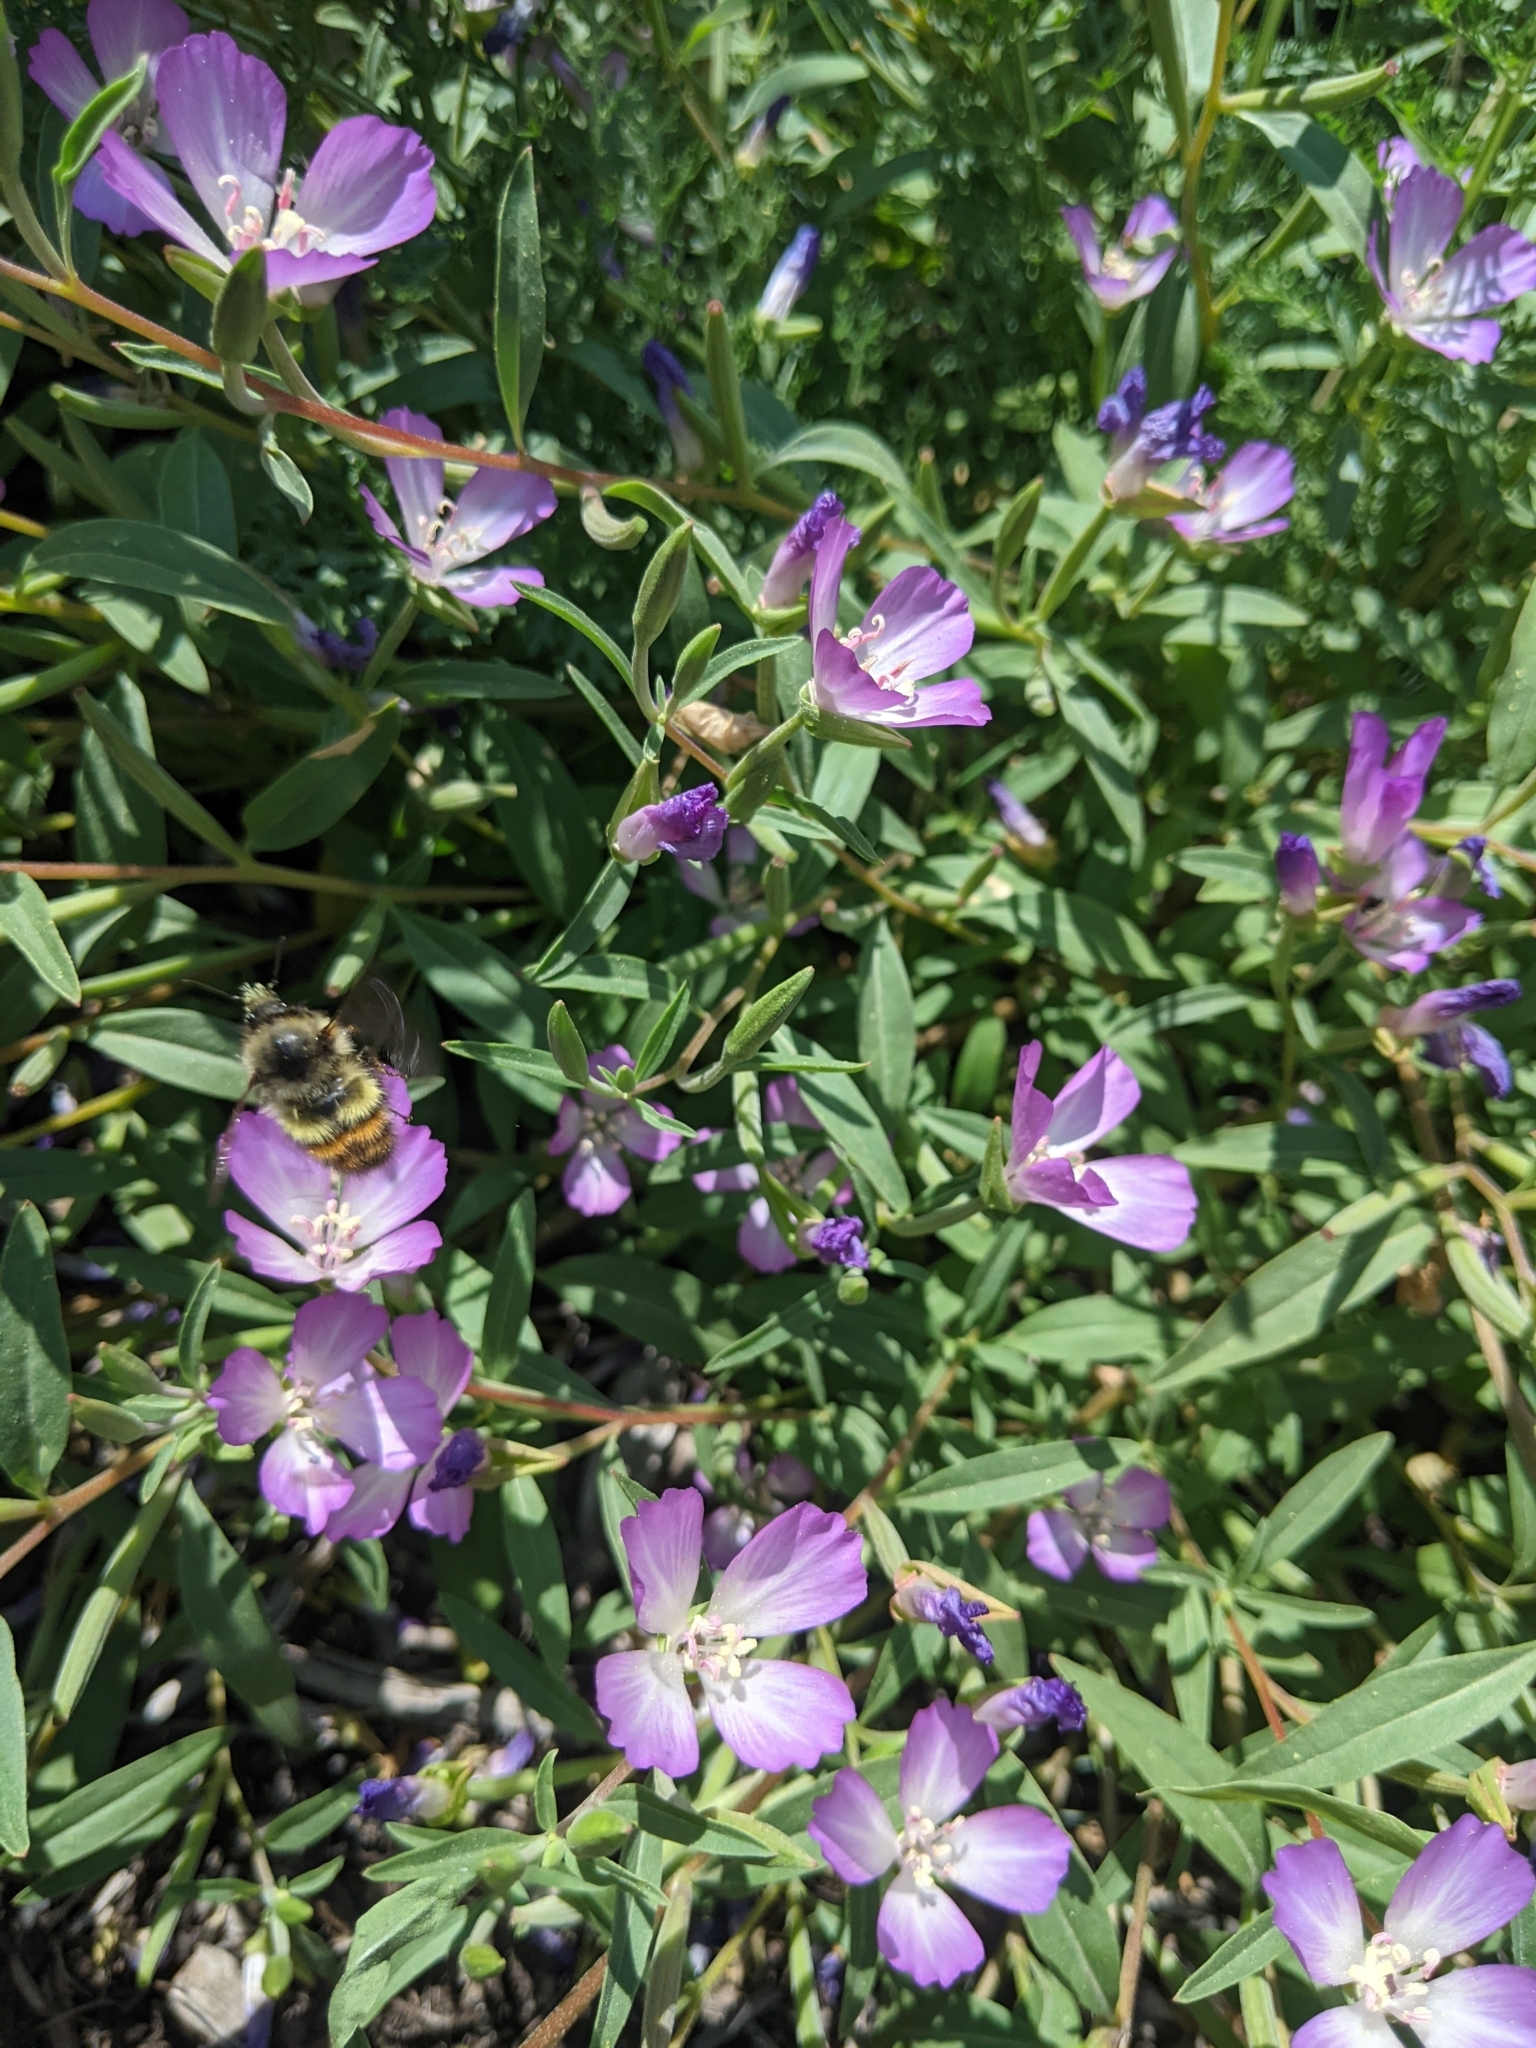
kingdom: Animalia
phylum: Arthropoda
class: Insecta
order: Hymenoptera
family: Apidae
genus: Bombus
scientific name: Bombus flavifrons
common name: Yellow head bumble bee
